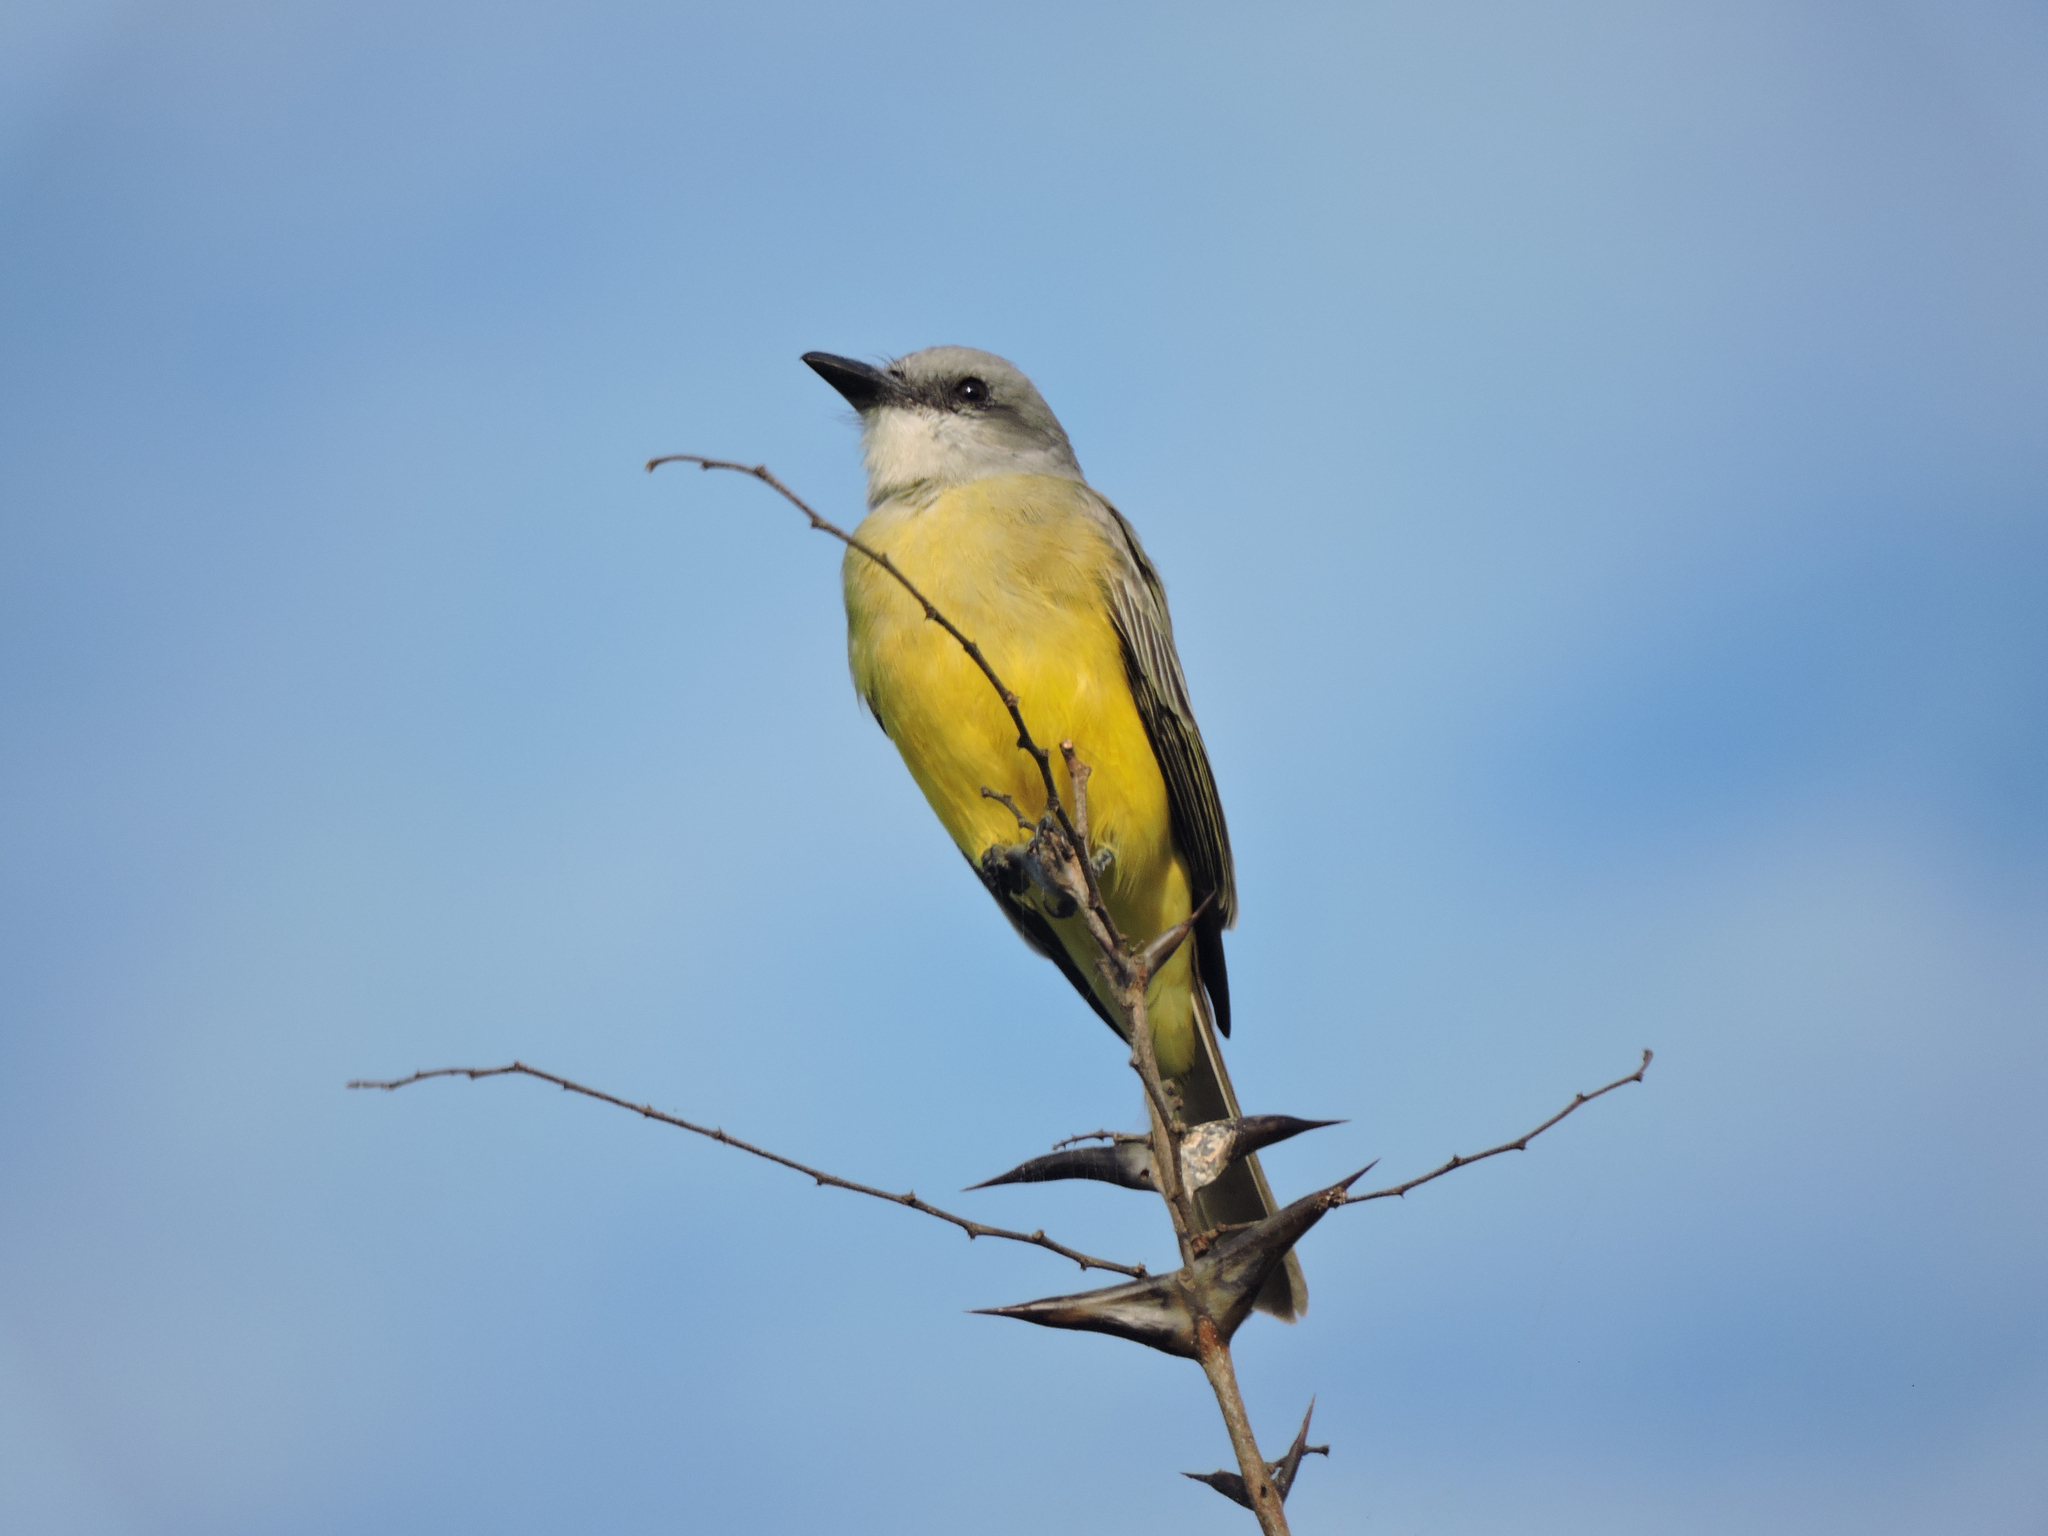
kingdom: Animalia
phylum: Chordata
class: Aves
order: Passeriformes
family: Tyrannidae
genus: Tyrannus
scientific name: Tyrannus melancholicus
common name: Tropical kingbird
